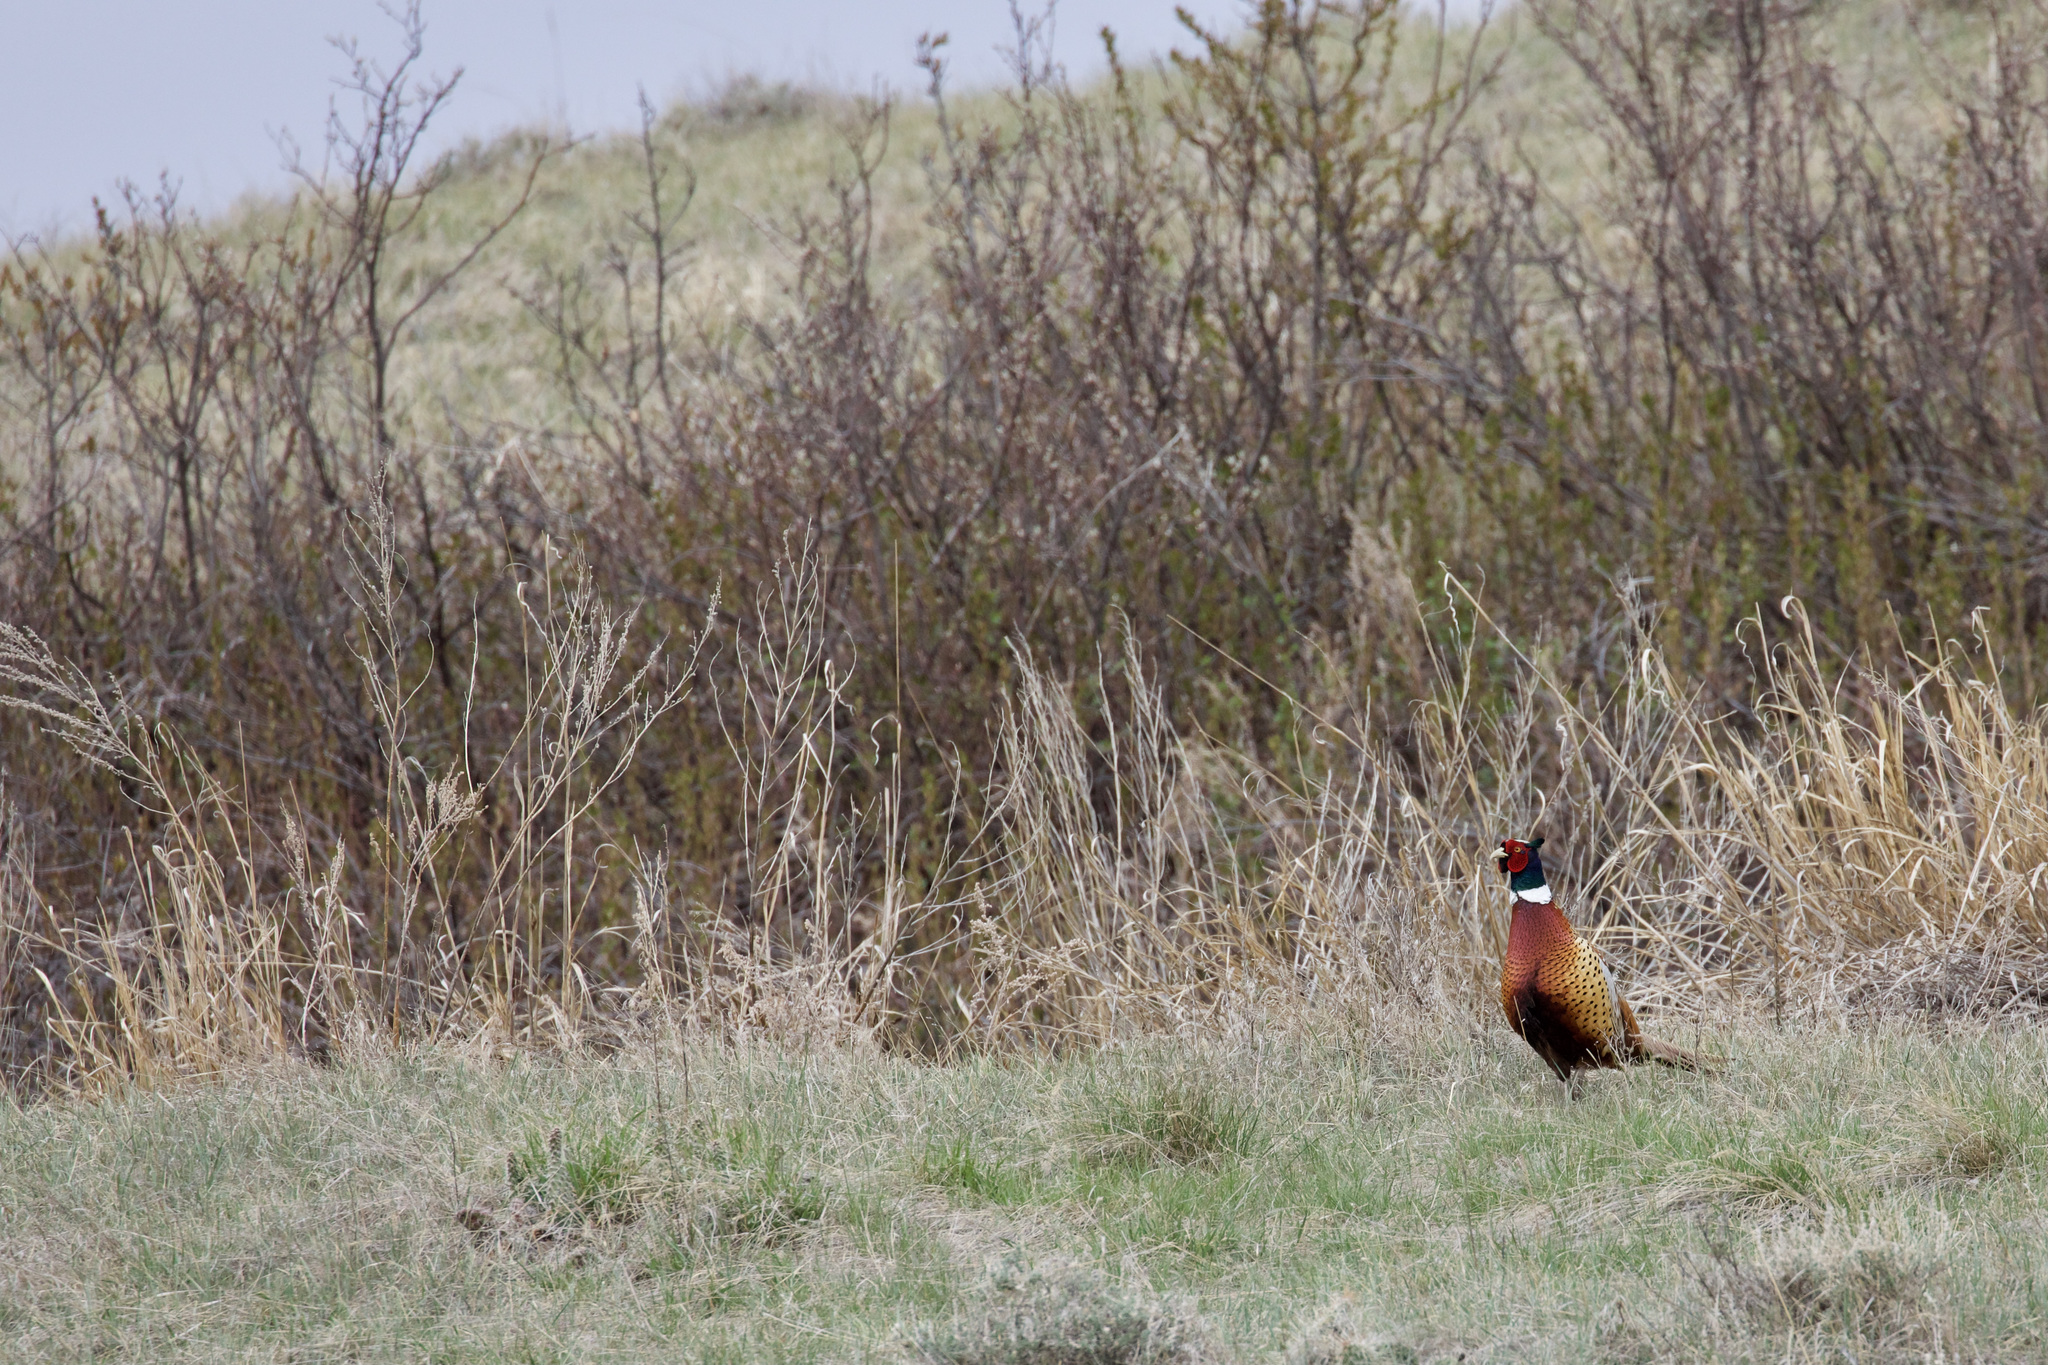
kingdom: Animalia
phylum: Chordata
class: Aves
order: Galliformes
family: Phasianidae
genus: Phasianus
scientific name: Phasianus colchicus
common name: Common pheasant
